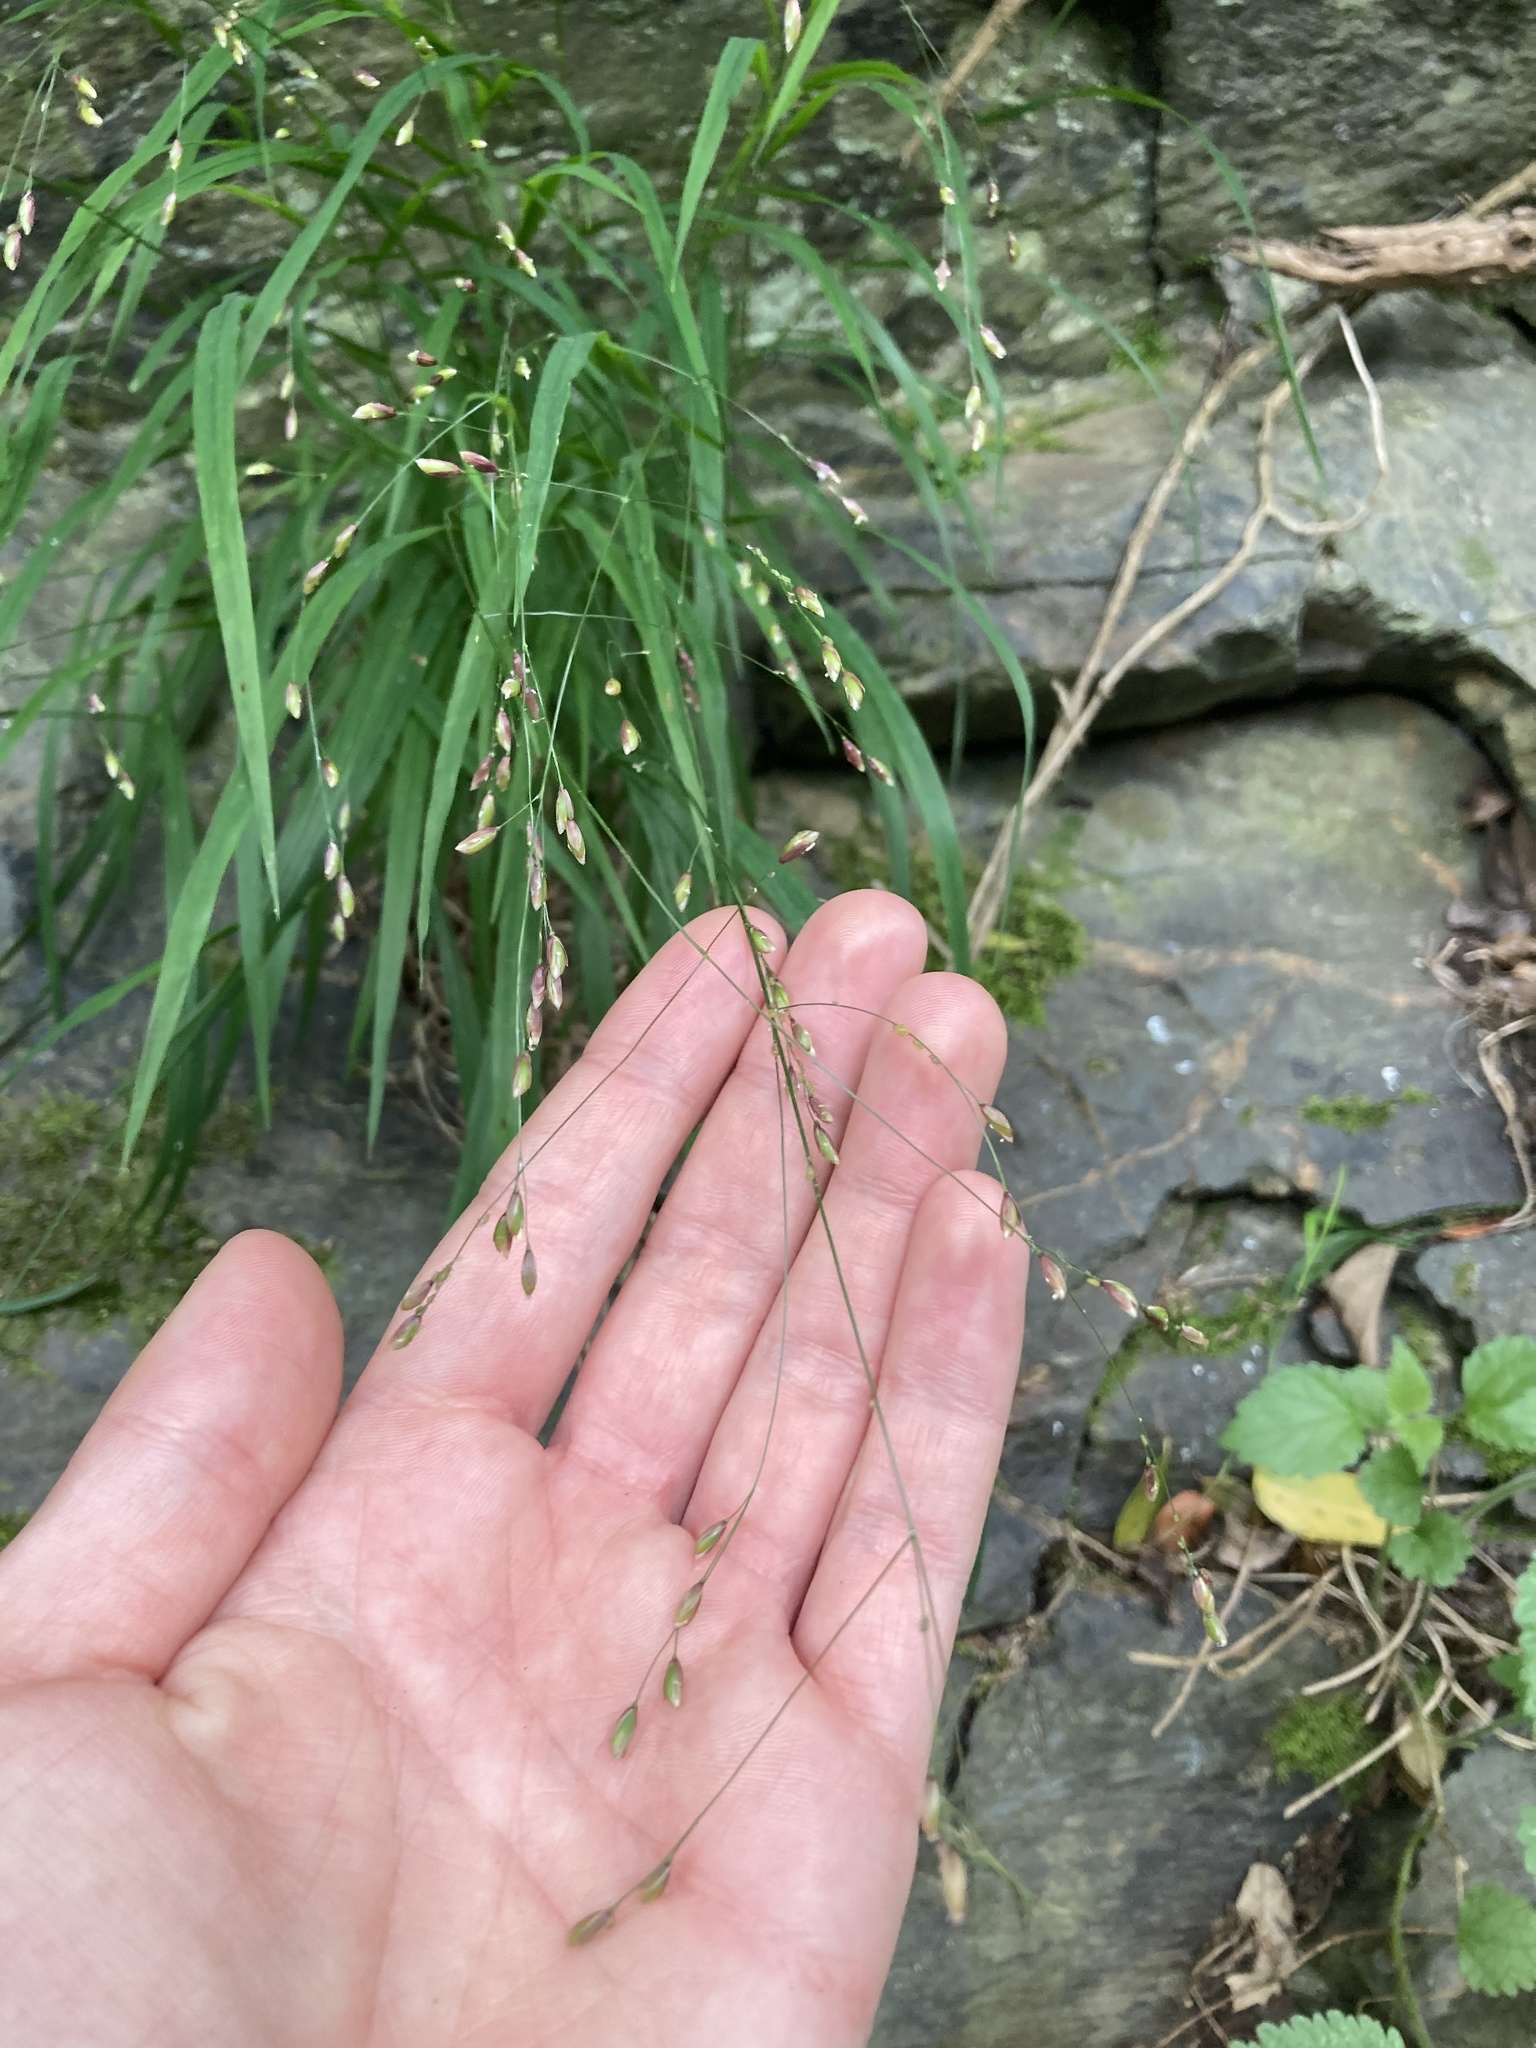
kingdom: Plantae
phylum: Tracheophyta
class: Liliopsida
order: Poales
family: Poaceae
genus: Melica
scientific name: Melica uniflora
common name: Wood melick
